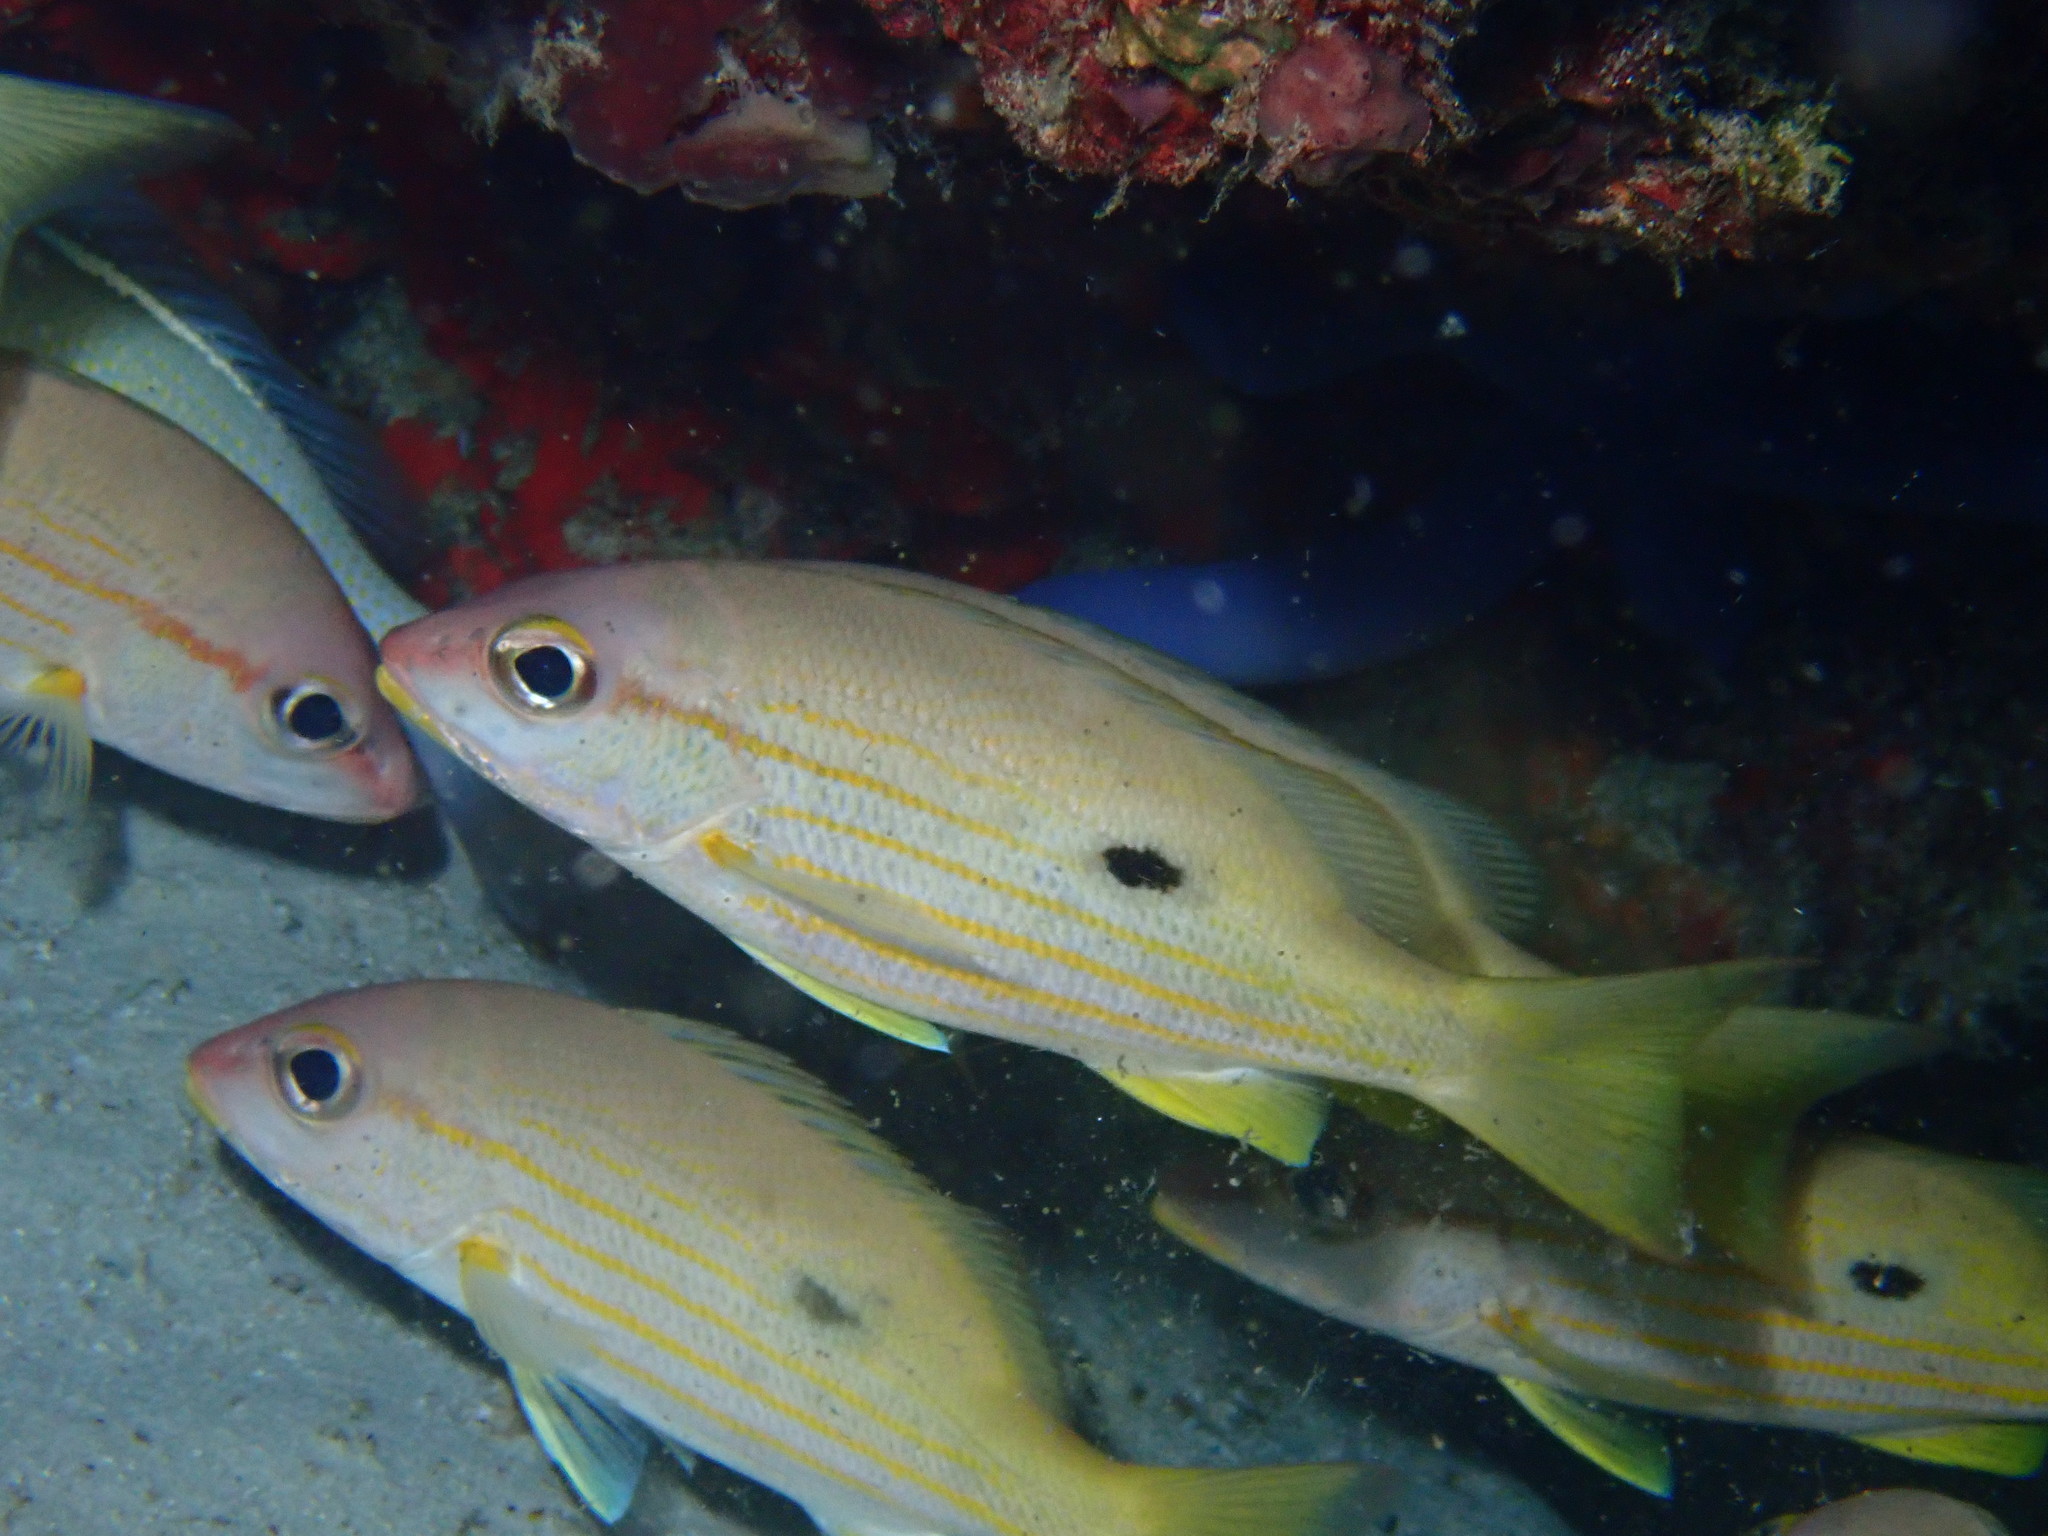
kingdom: Animalia
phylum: Chordata
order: Perciformes
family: Lutjanidae
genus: Lutjanus
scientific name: Lutjanus fulviflamma
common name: Blackspot snapper
